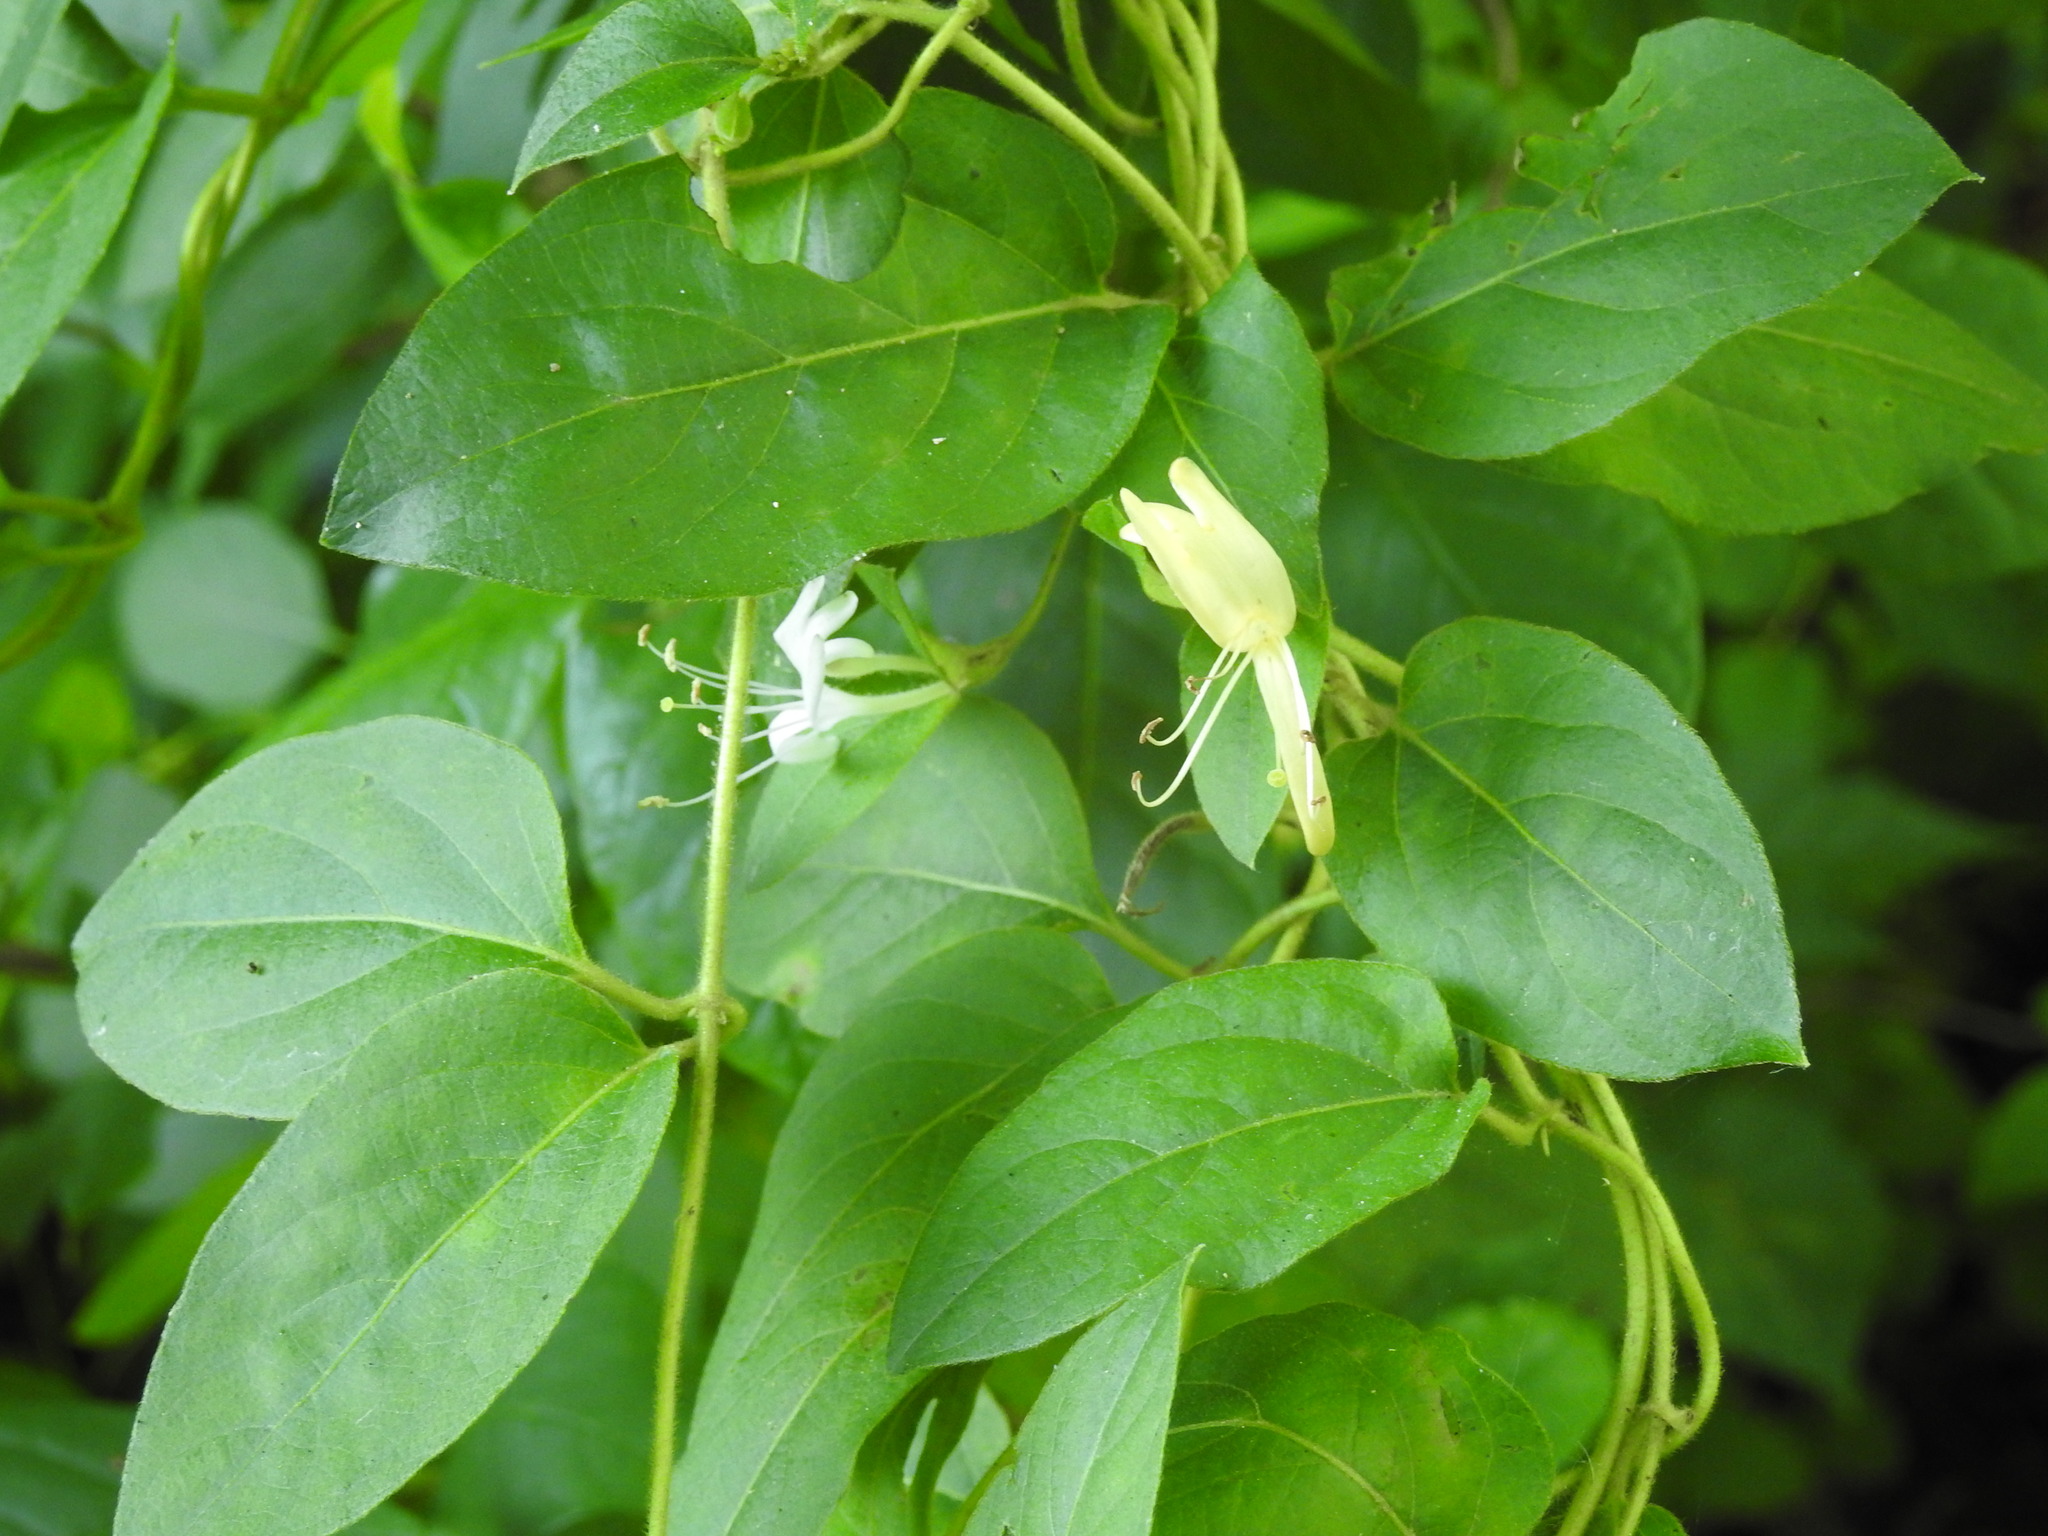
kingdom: Plantae
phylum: Tracheophyta
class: Magnoliopsida
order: Dipsacales
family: Caprifoliaceae
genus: Lonicera
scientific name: Lonicera japonica
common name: Japanese honeysuckle
